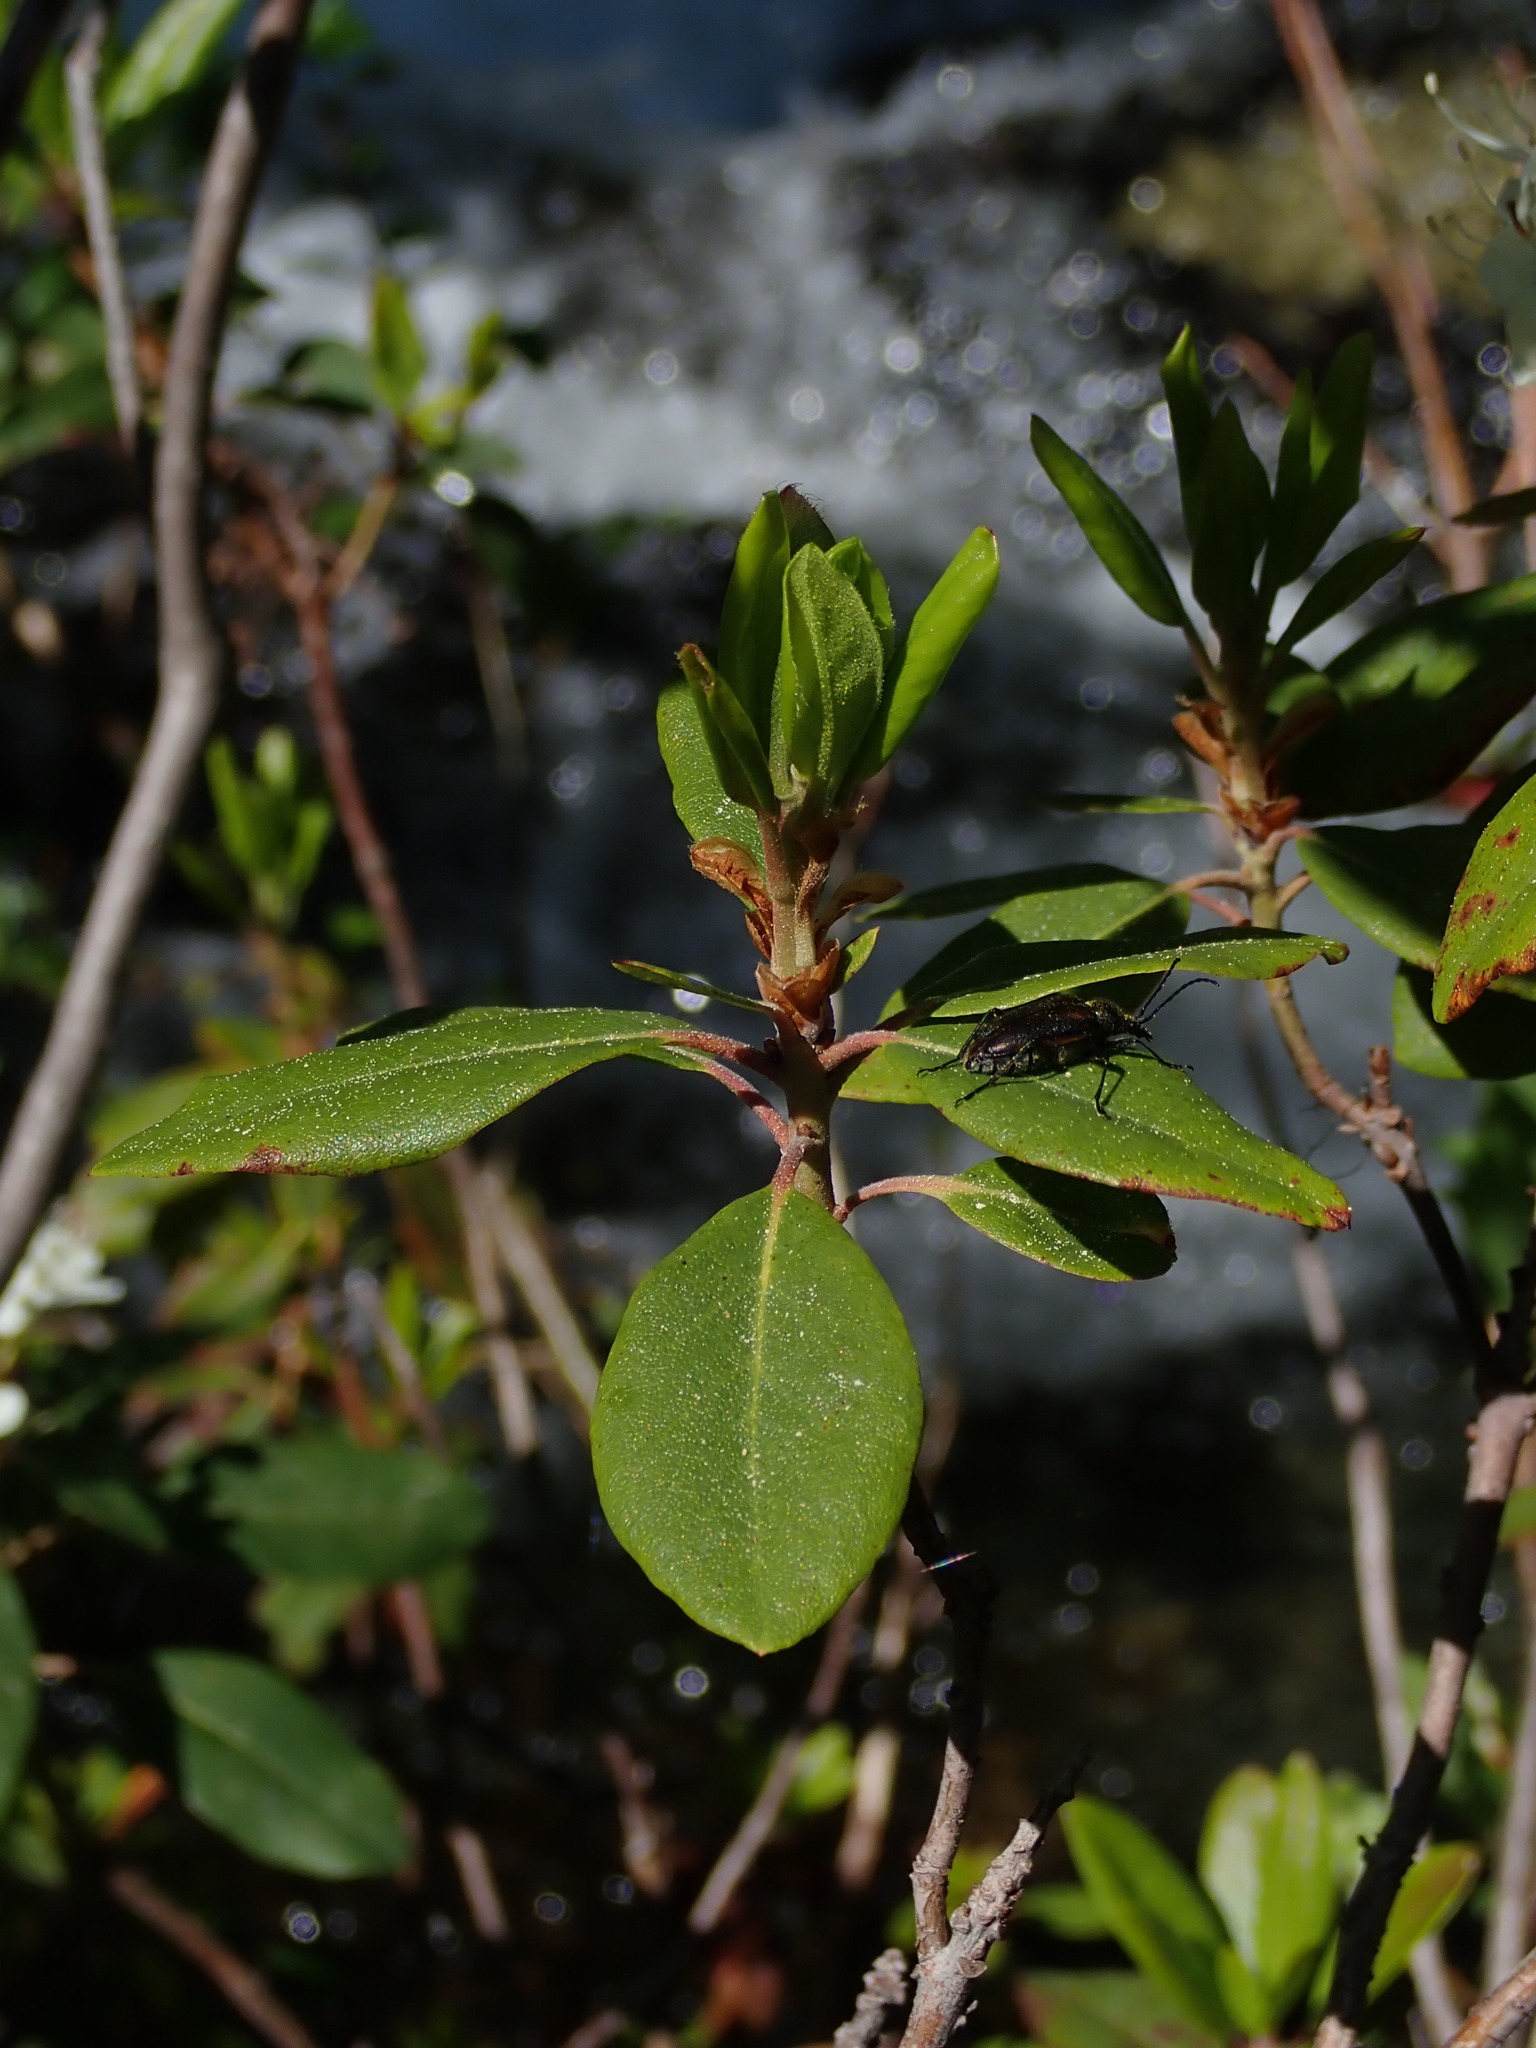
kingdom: Plantae
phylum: Tracheophyta
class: Magnoliopsida
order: Ericales
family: Ericaceae
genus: Rhododendron
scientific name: Rhododendron columbianum
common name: Western labrador tea
